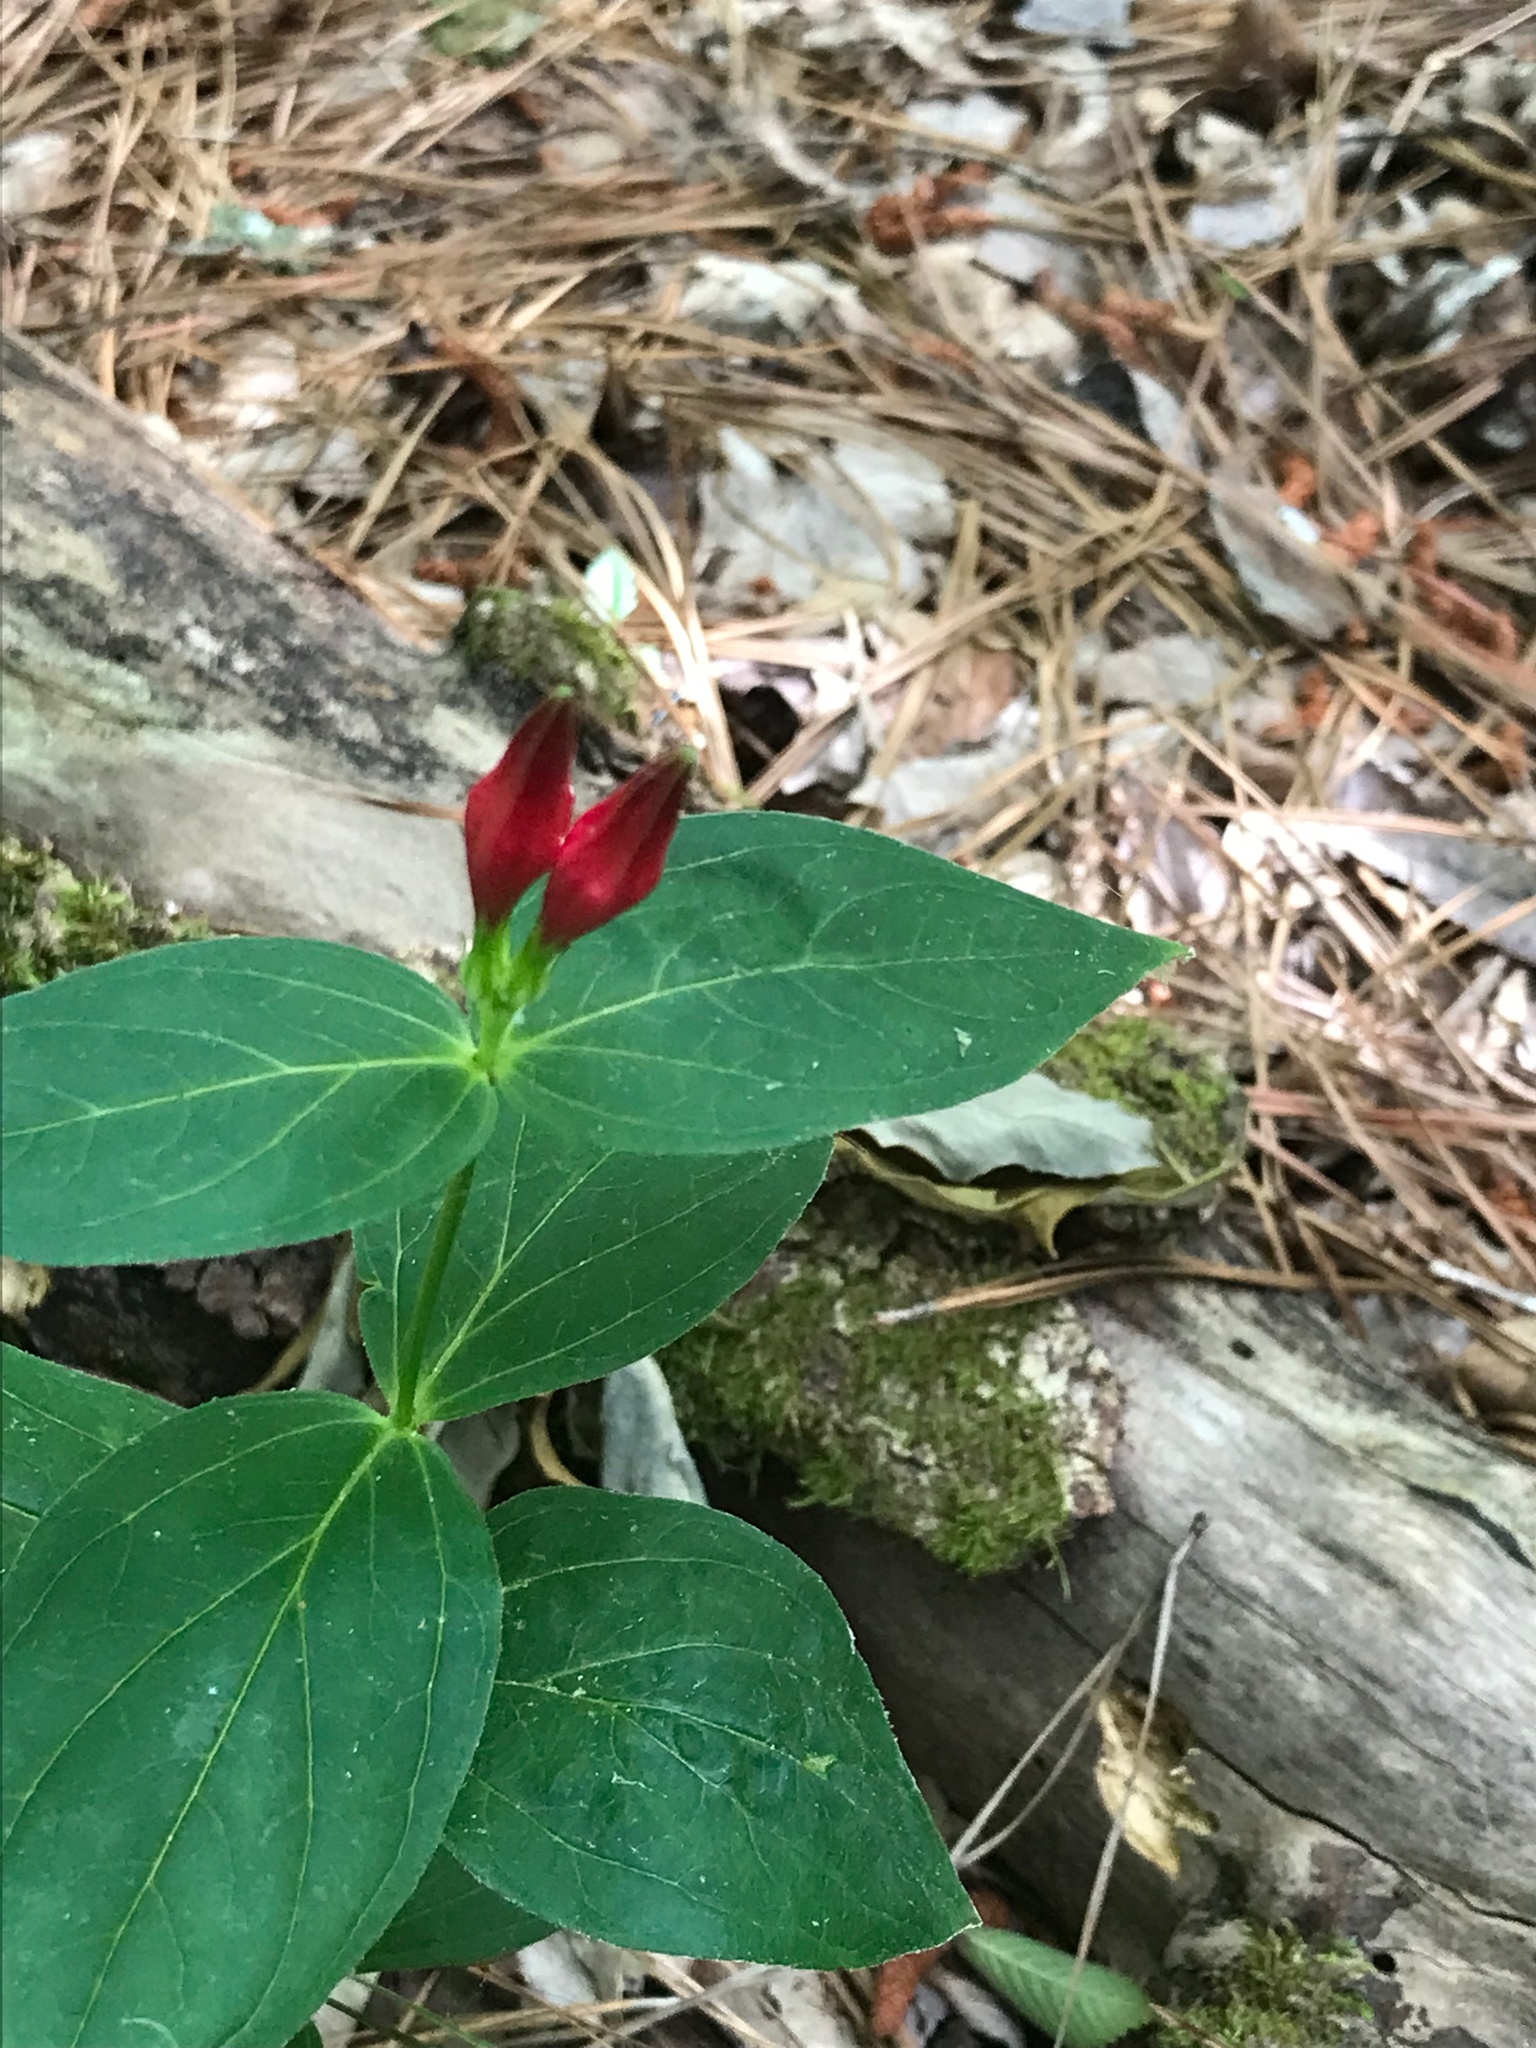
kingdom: Plantae
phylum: Tracheophyta
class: Magnoliopsida
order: Gentianales
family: Loganiaceae
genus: Spigelia
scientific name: Spigelia marilandica
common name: Indian-pink
